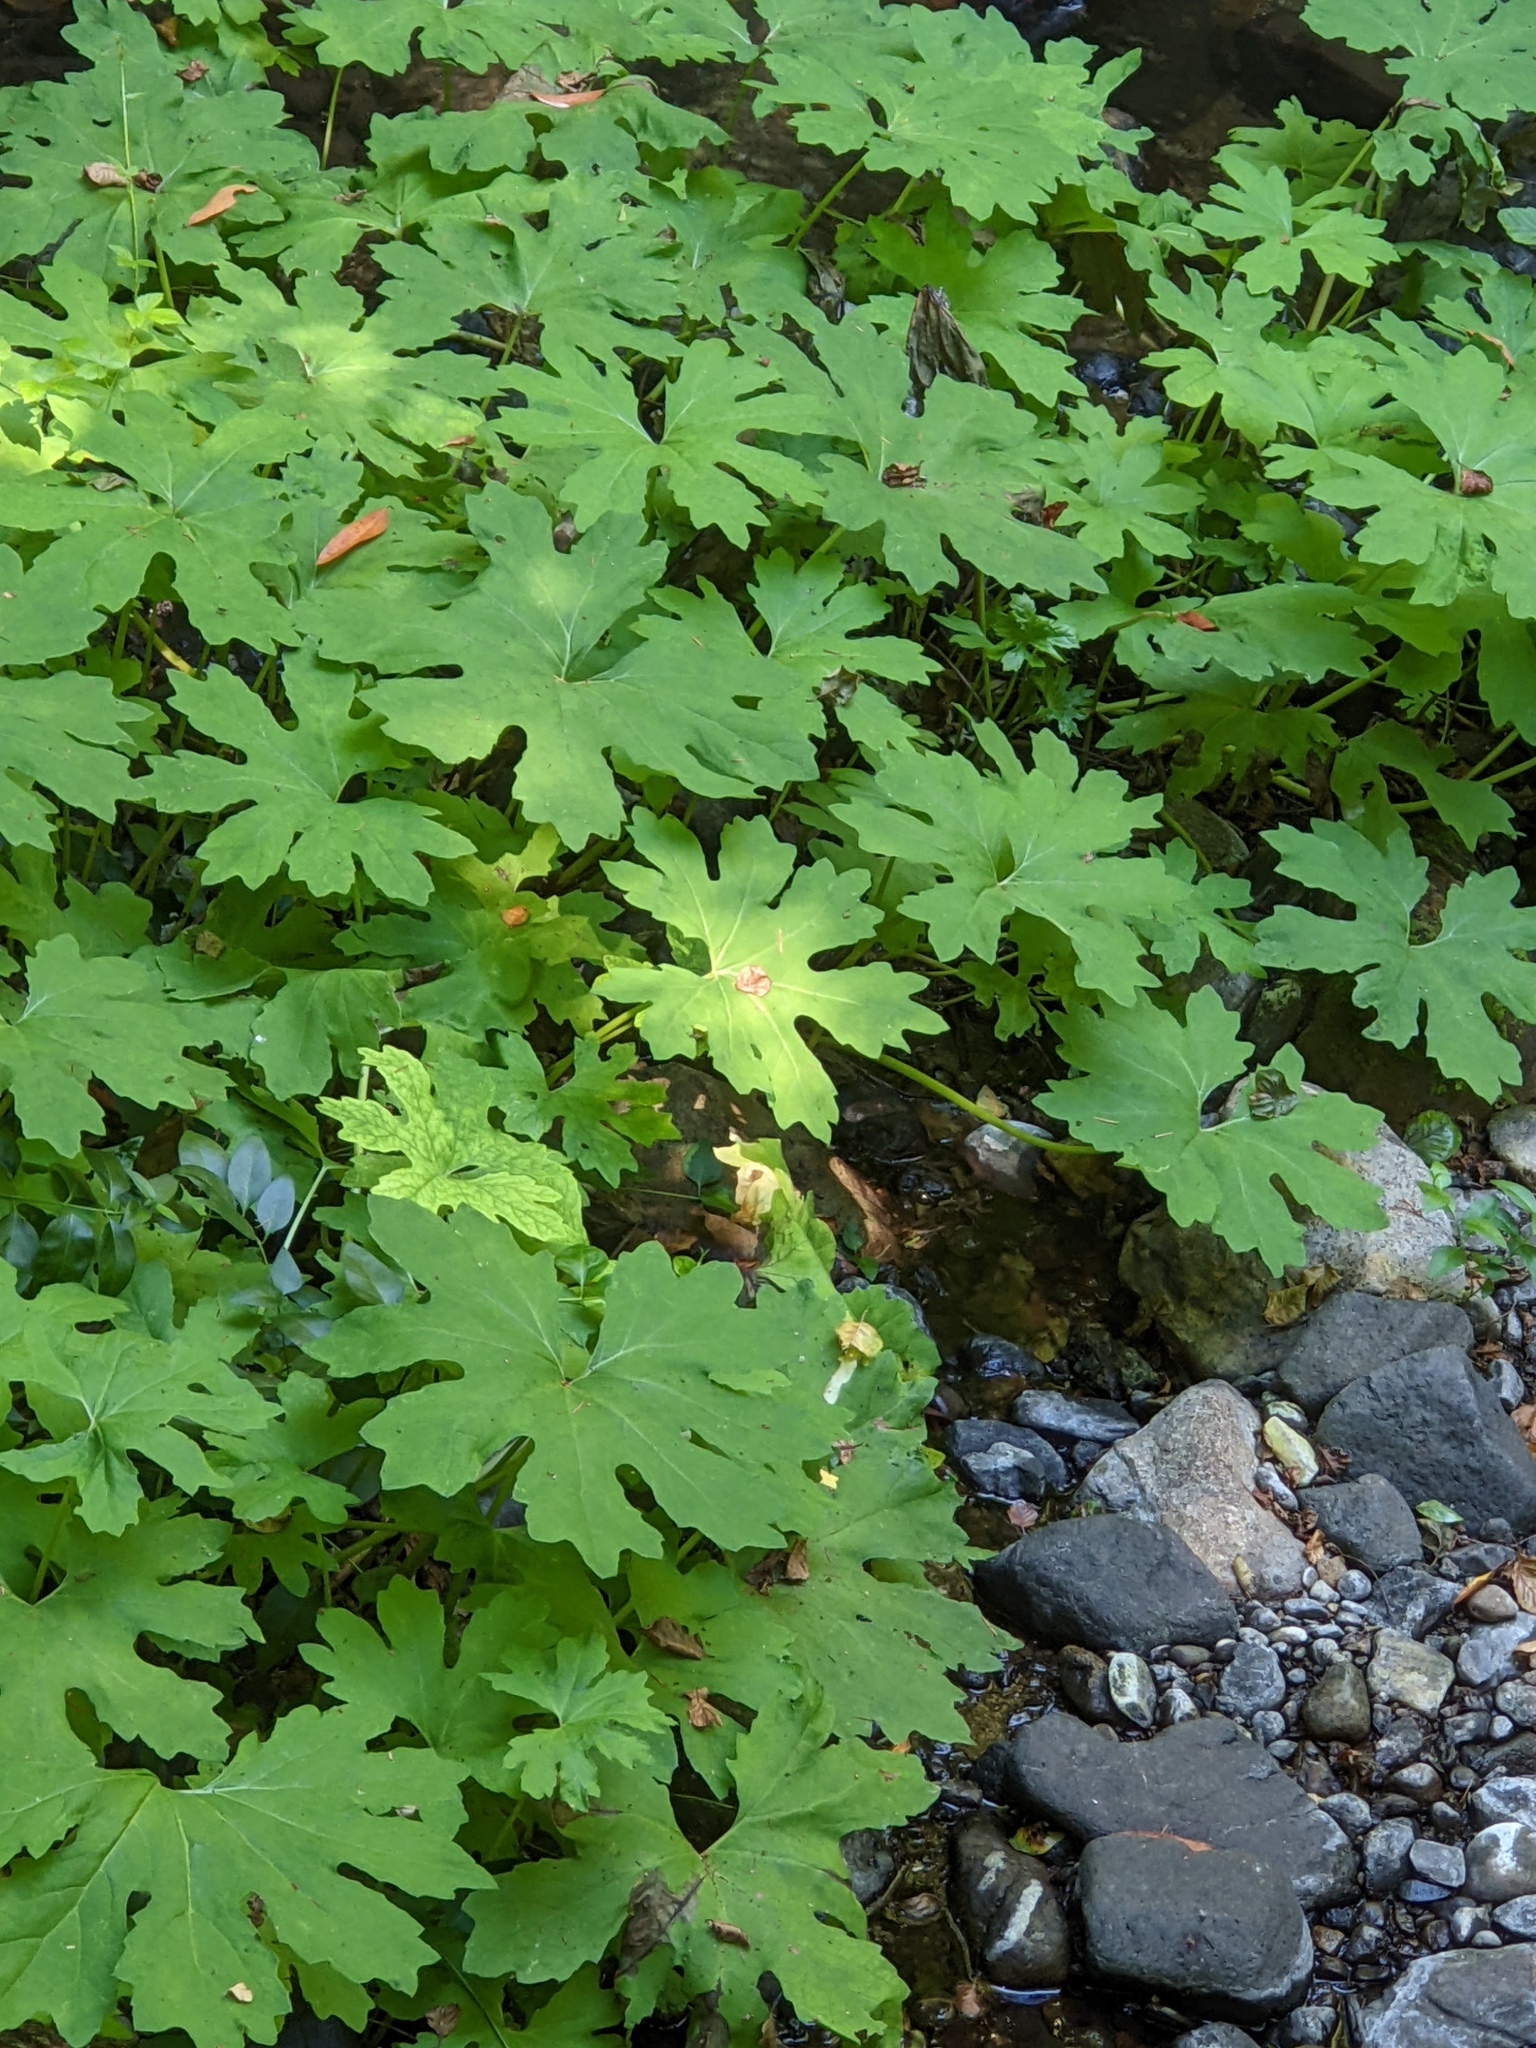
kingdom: Plantae
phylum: Tracheophyta
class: Magnoliopsida
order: Asterales
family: Asteraceae
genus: Petasites
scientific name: Petasites frigidus
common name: Arctic butterbur
